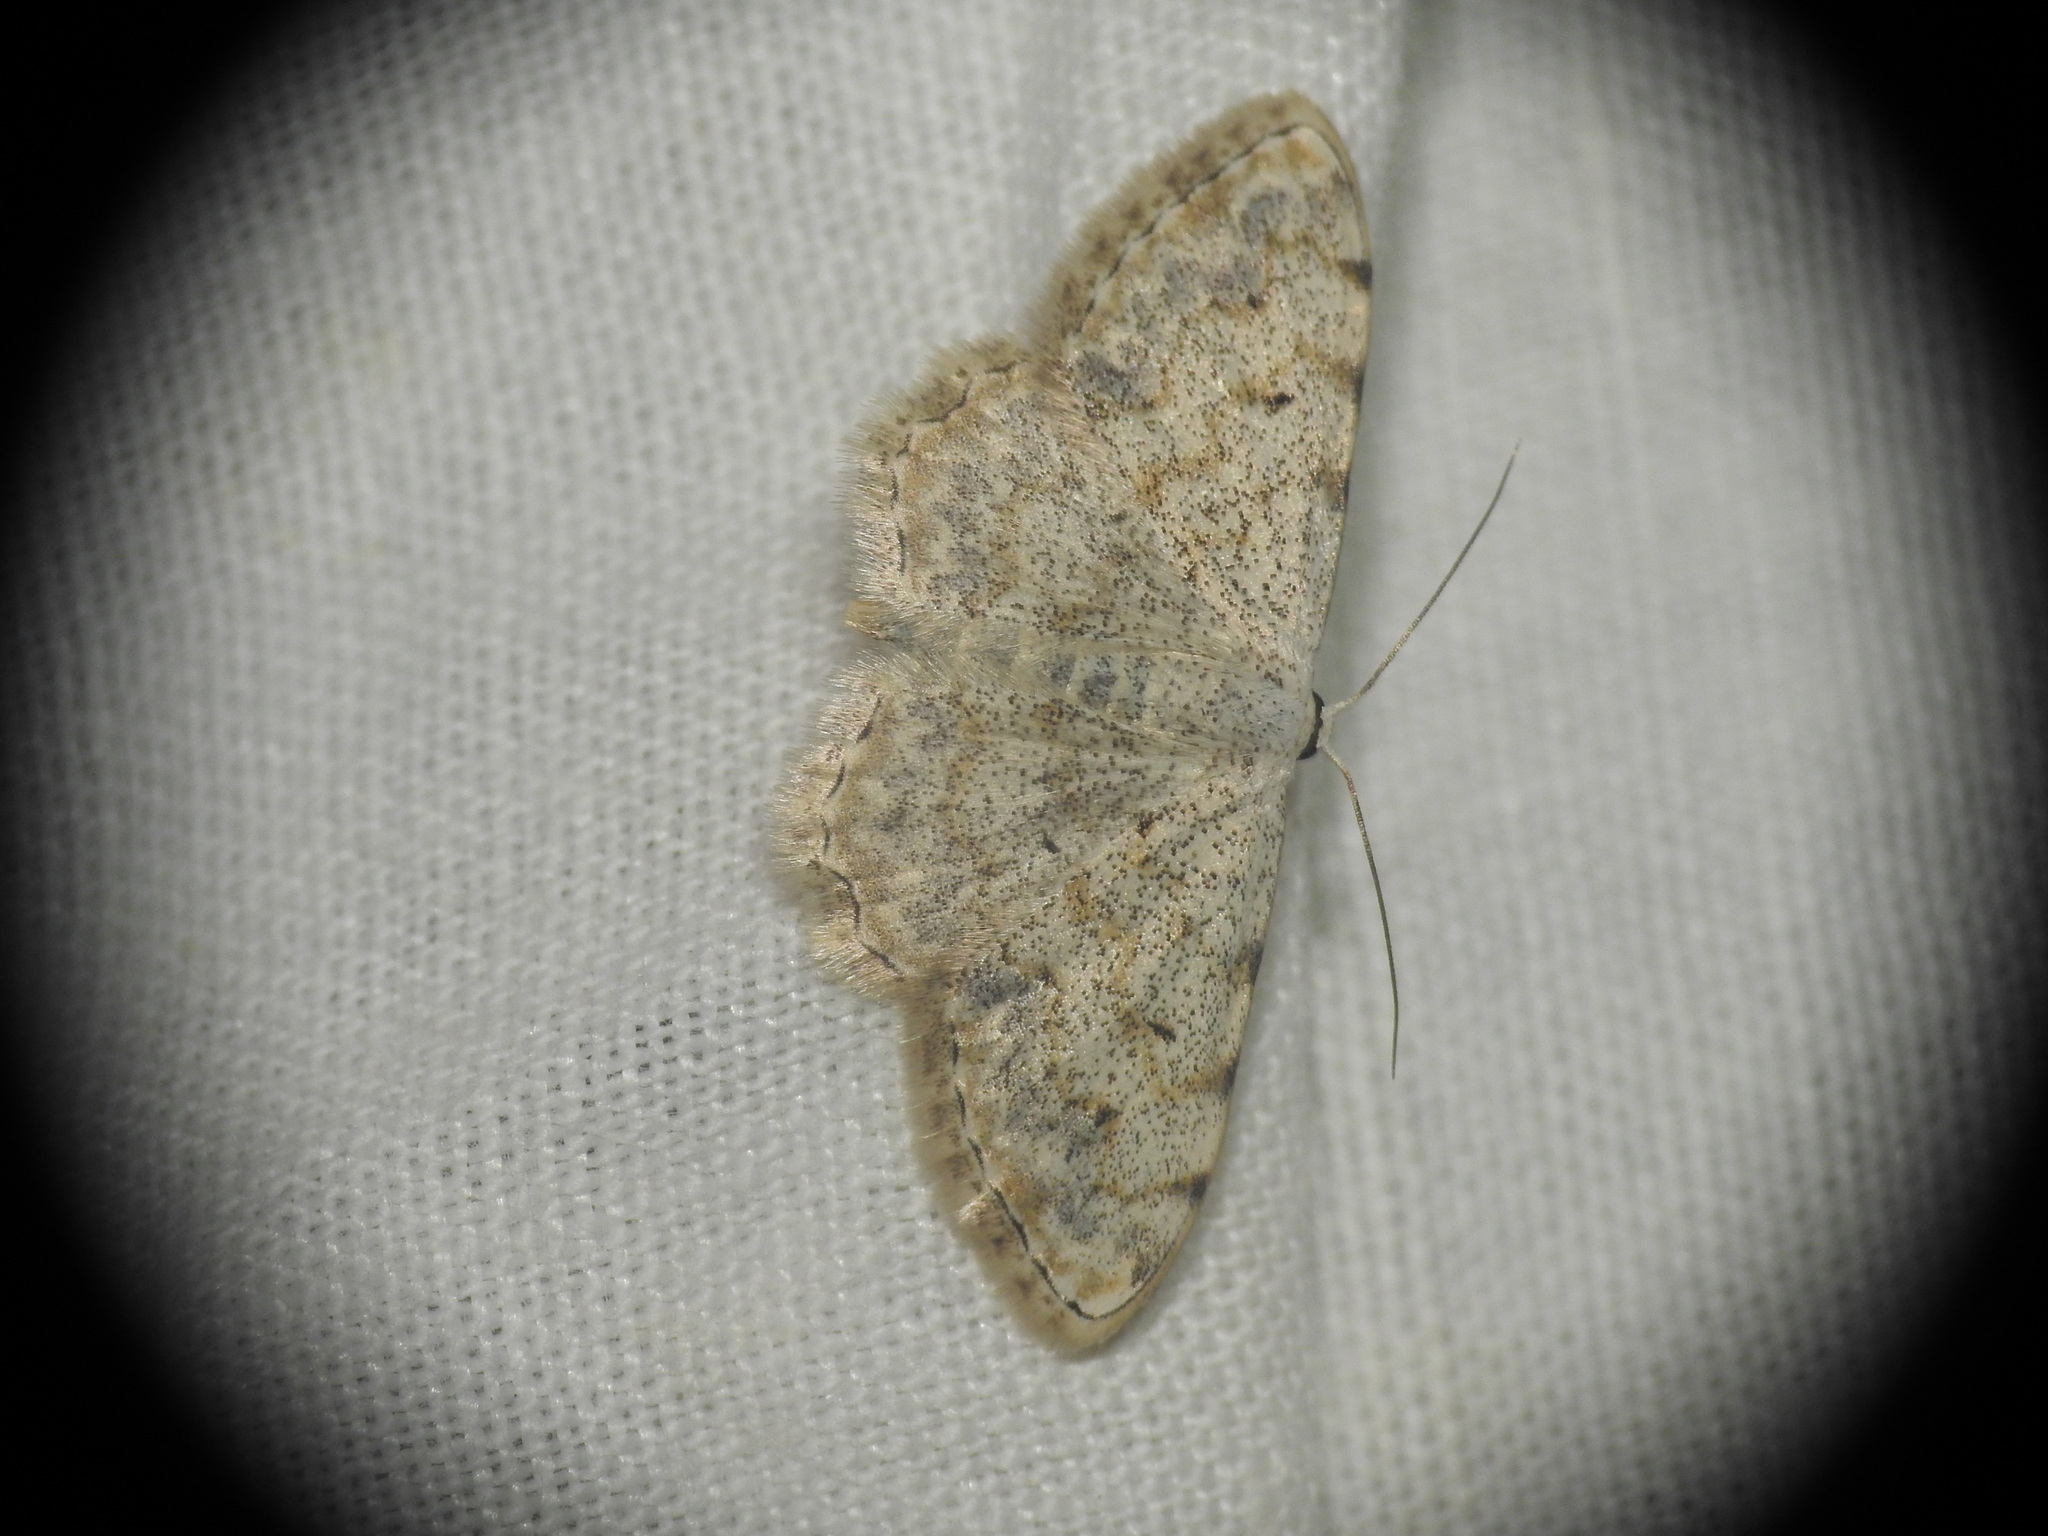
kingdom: Animalia
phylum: Arthropoda
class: Insecta
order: Lepidoptera
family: Geometridae
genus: Scopula
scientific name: Scopula submutata
